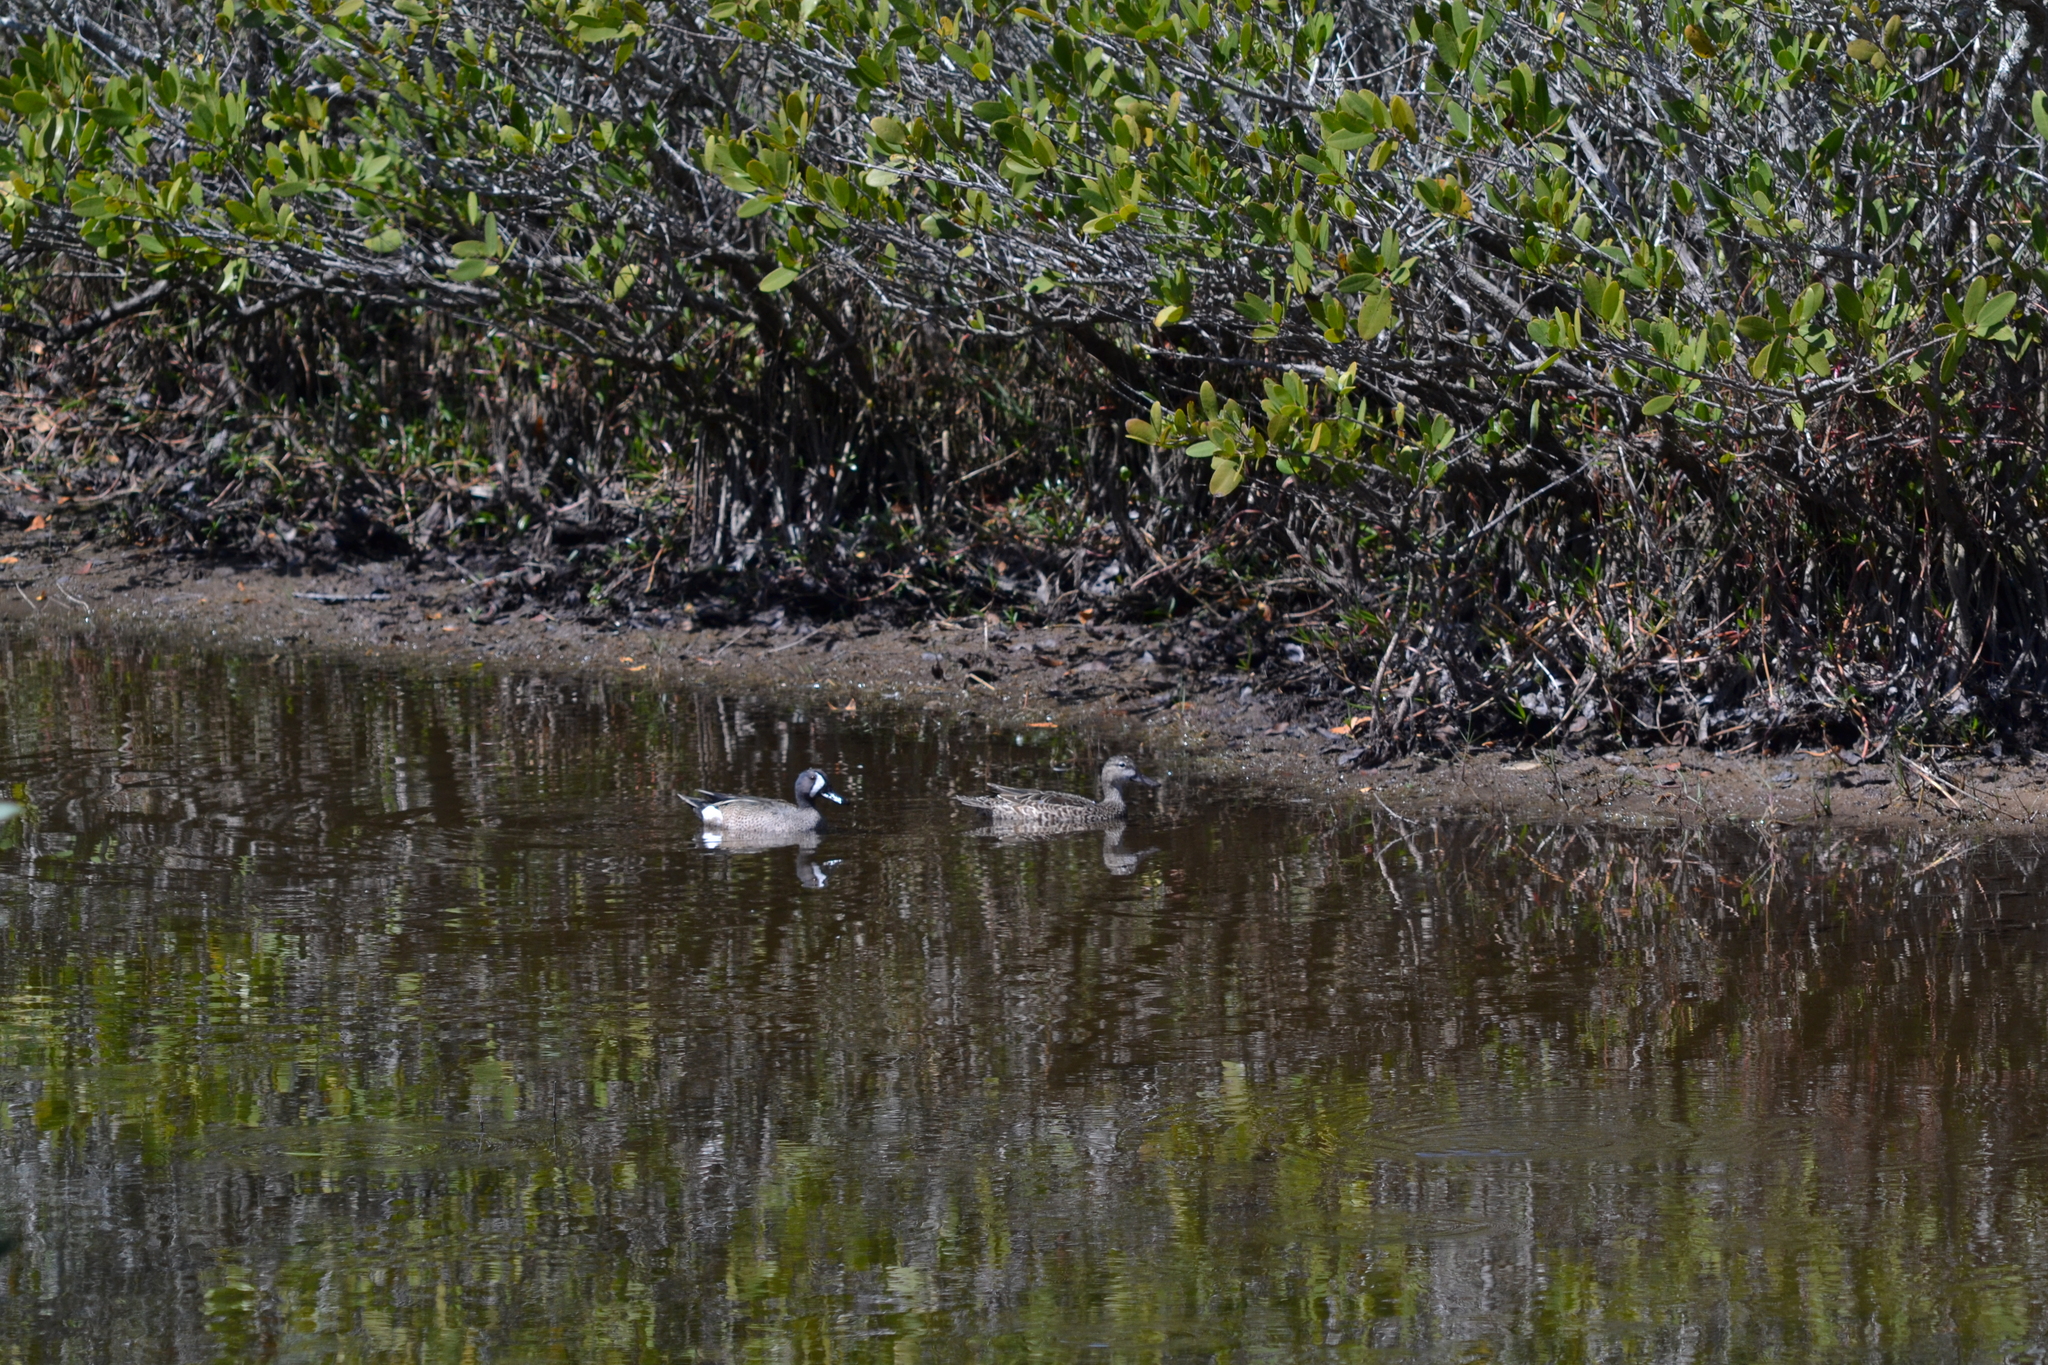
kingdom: Animalia
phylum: Chordata
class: Aves
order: Anseriformes
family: Anatidae
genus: Spatula
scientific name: Spatula discors
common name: Blue-winged teal
